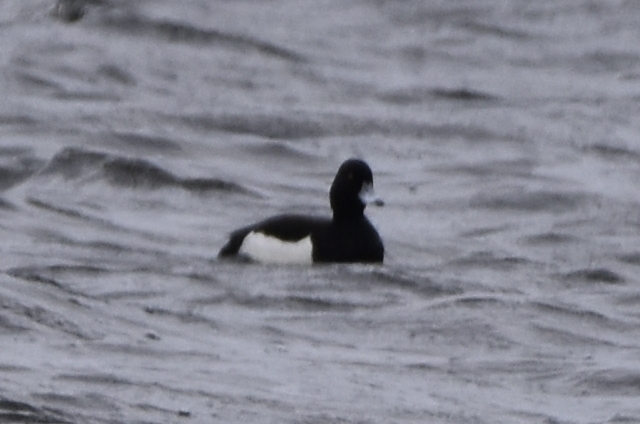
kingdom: Animalia
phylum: Chordata
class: Aves
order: Anseriformes
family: Anatidae
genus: Aythya
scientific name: Aythya fuligula
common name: Tufted duck
